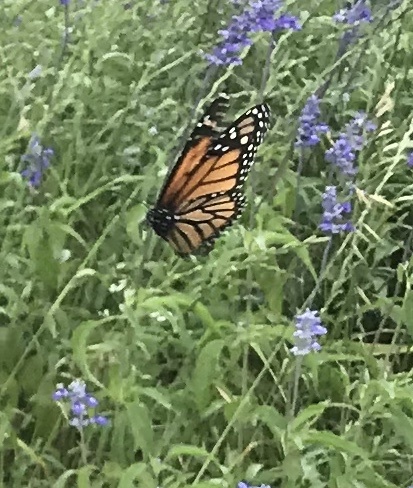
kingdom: Animalia
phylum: Arthropoda
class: Insecta
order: Lepidoptera
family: Nymphalidae
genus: Danaus
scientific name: Danaus plexippus
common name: Monarch
